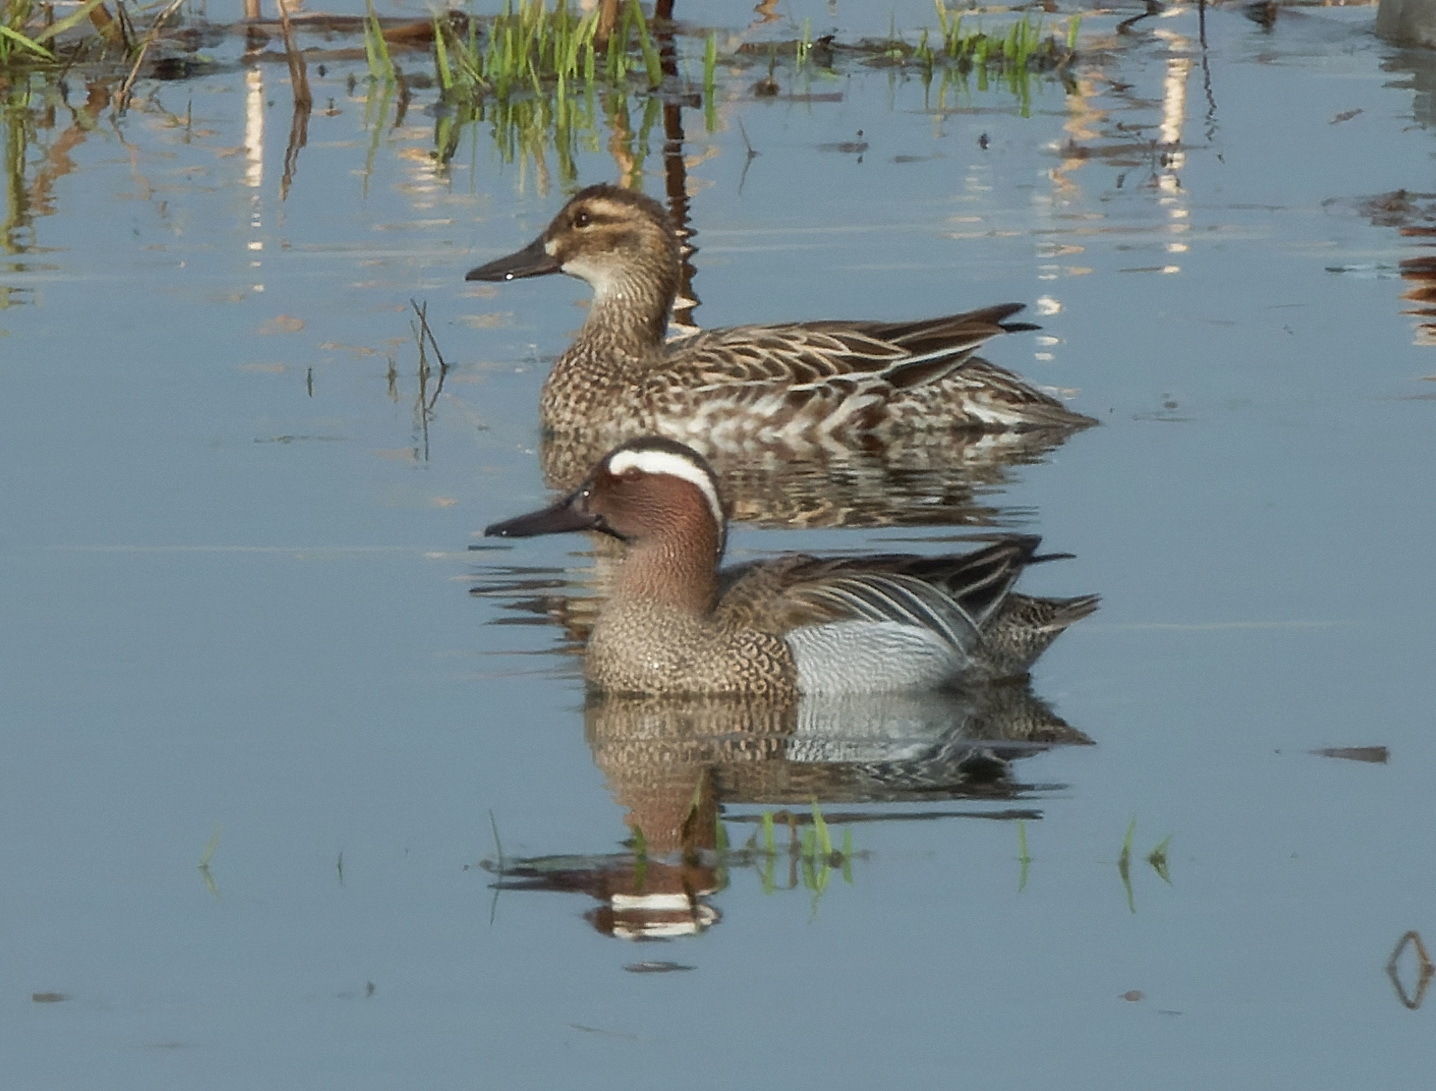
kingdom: Animalia
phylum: Chordata
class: Aves
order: Anseriformes
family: Anatidae
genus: Spatula
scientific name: Spatula querquedula
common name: Garganey
